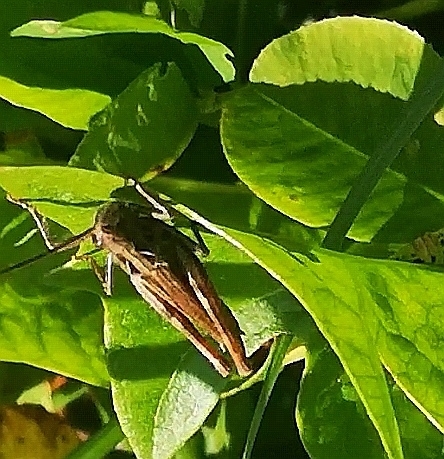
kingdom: Animalia
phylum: Arthropoda
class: Insecta
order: Orthoptera
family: Acrididae
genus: Chorthippus
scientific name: Chorthippus biguttulus
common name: Bow-winged grasshopper
